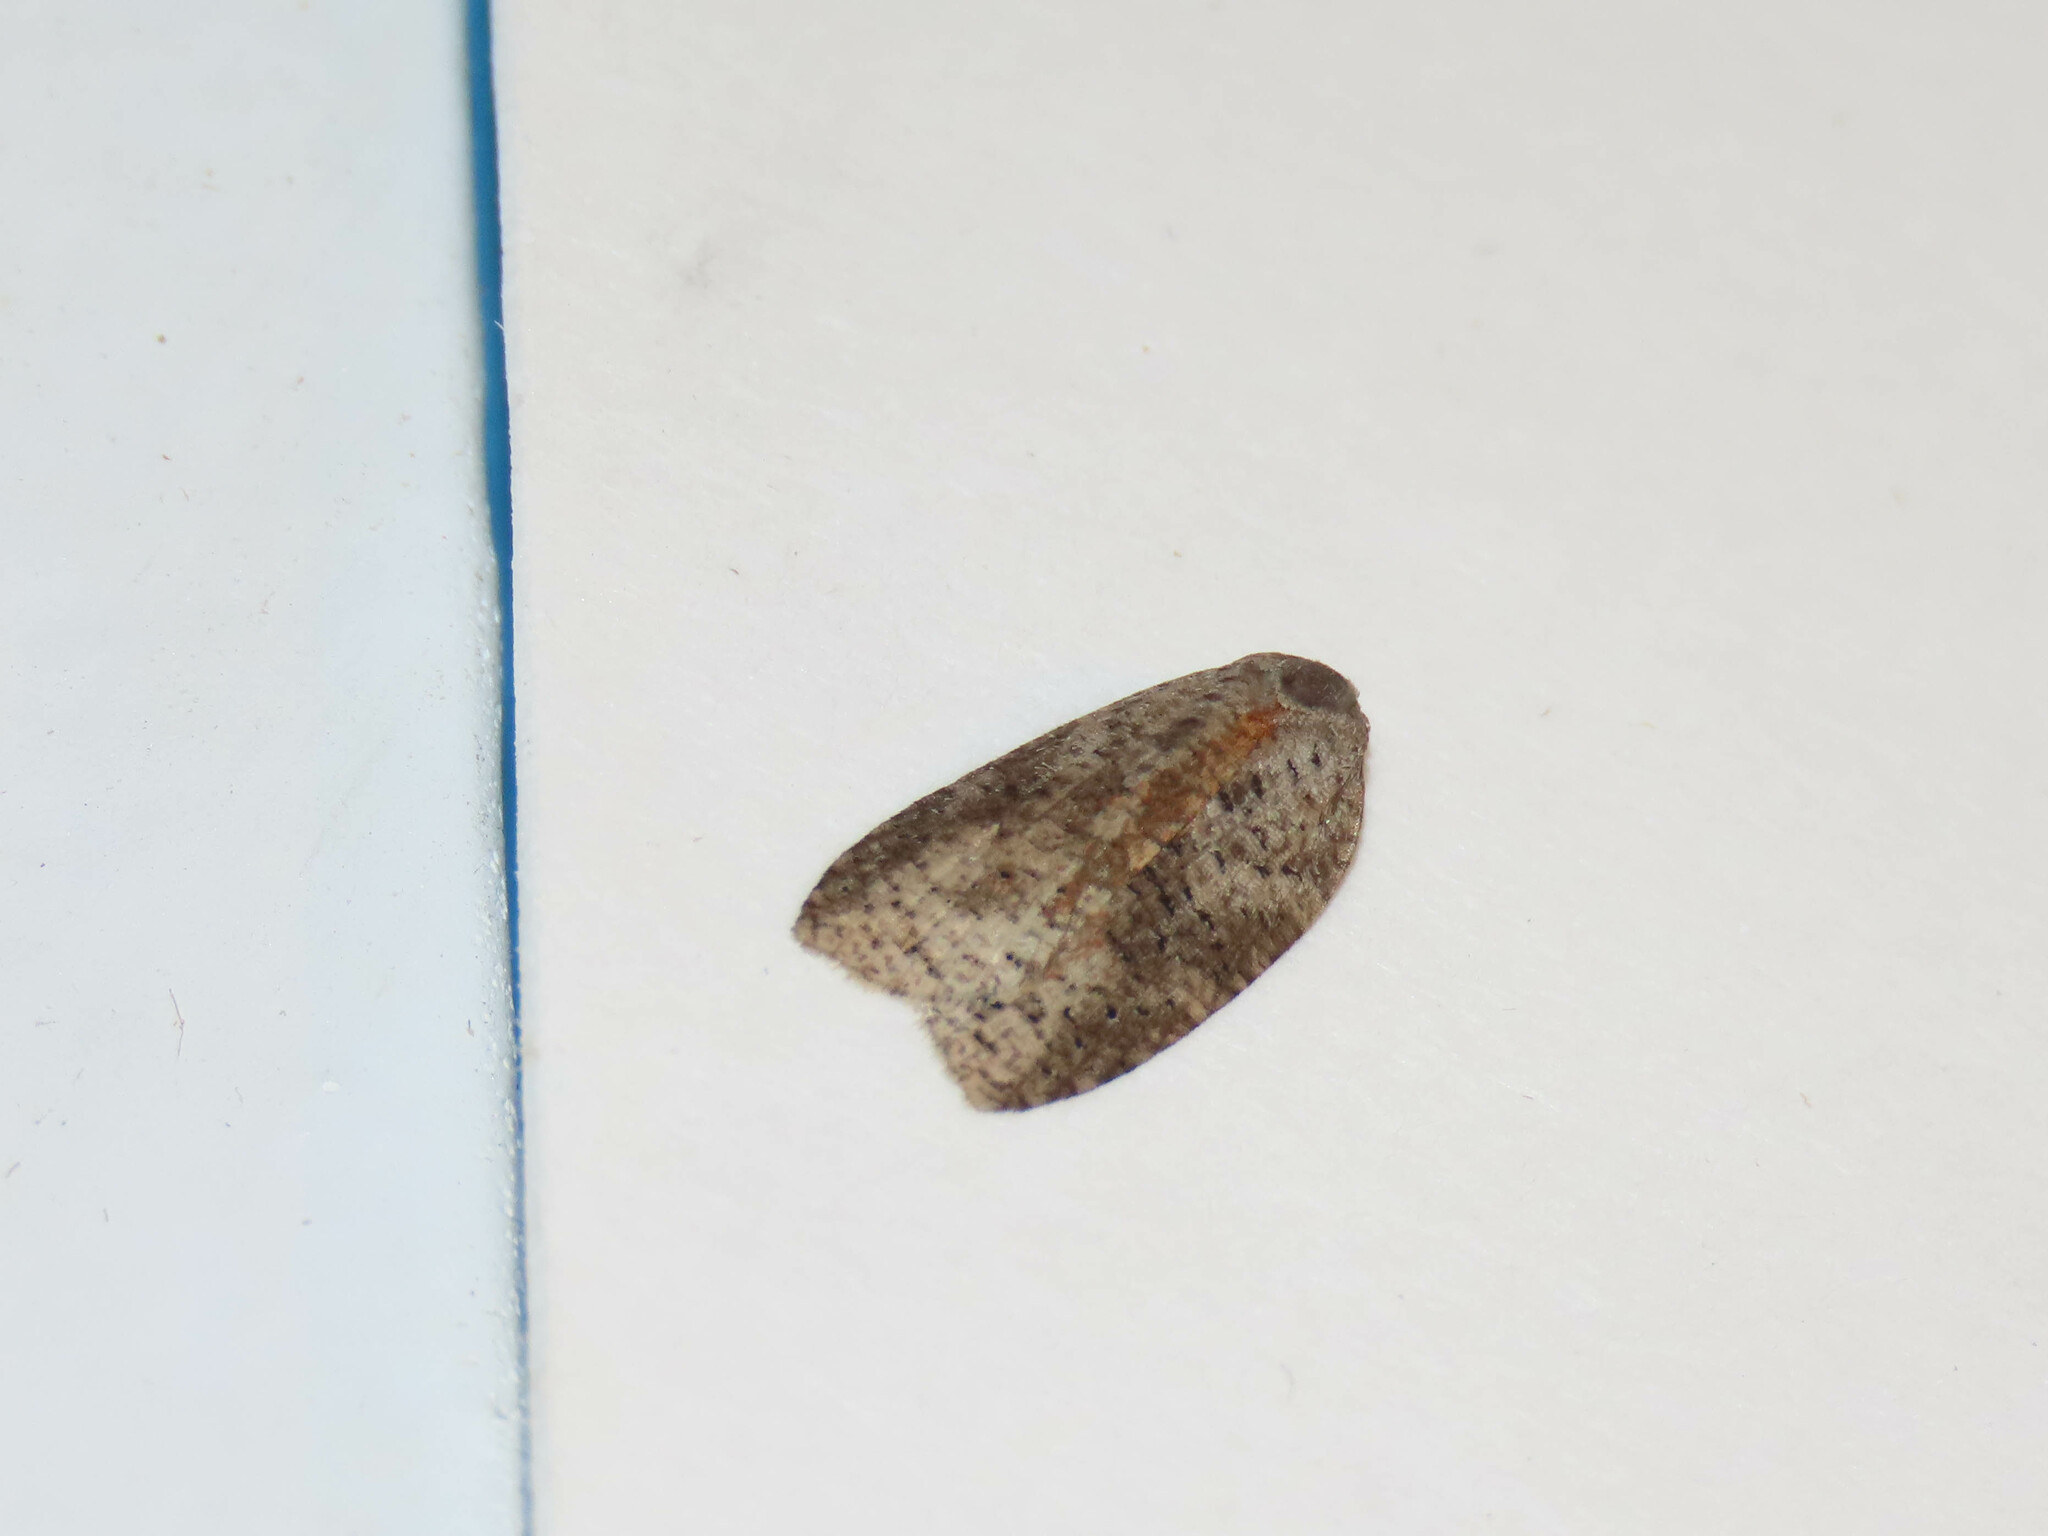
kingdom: Animalia
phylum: Arthropoda
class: Insecta
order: Lepidoptera
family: Tortricidae
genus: Amorbia
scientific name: Amorbia humerosana
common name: White-lined leafroller moth
